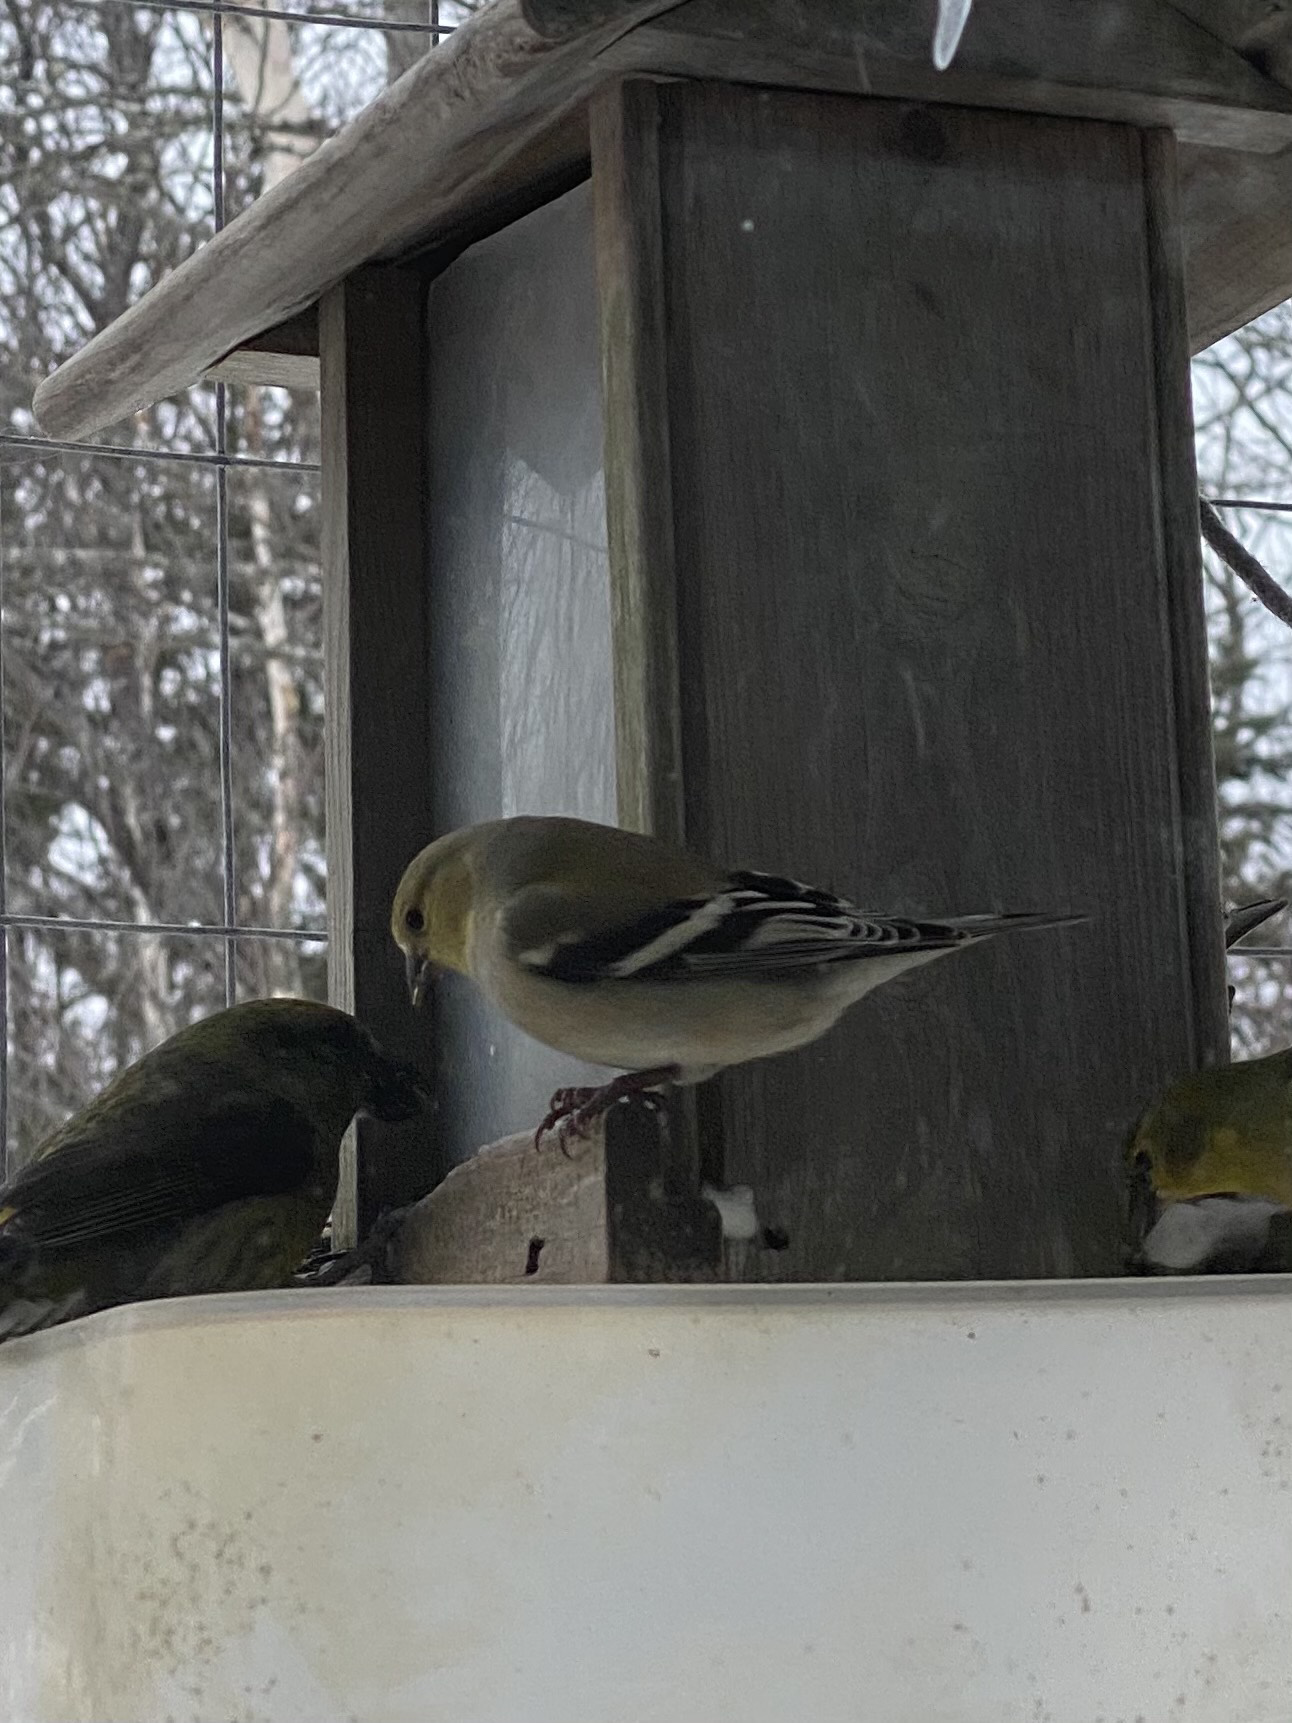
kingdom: Animalia
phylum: Chordata
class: Aves
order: Passeriformes
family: Fringillidae
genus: Spinus
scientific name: Spinus tristis
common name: American goldfinch
